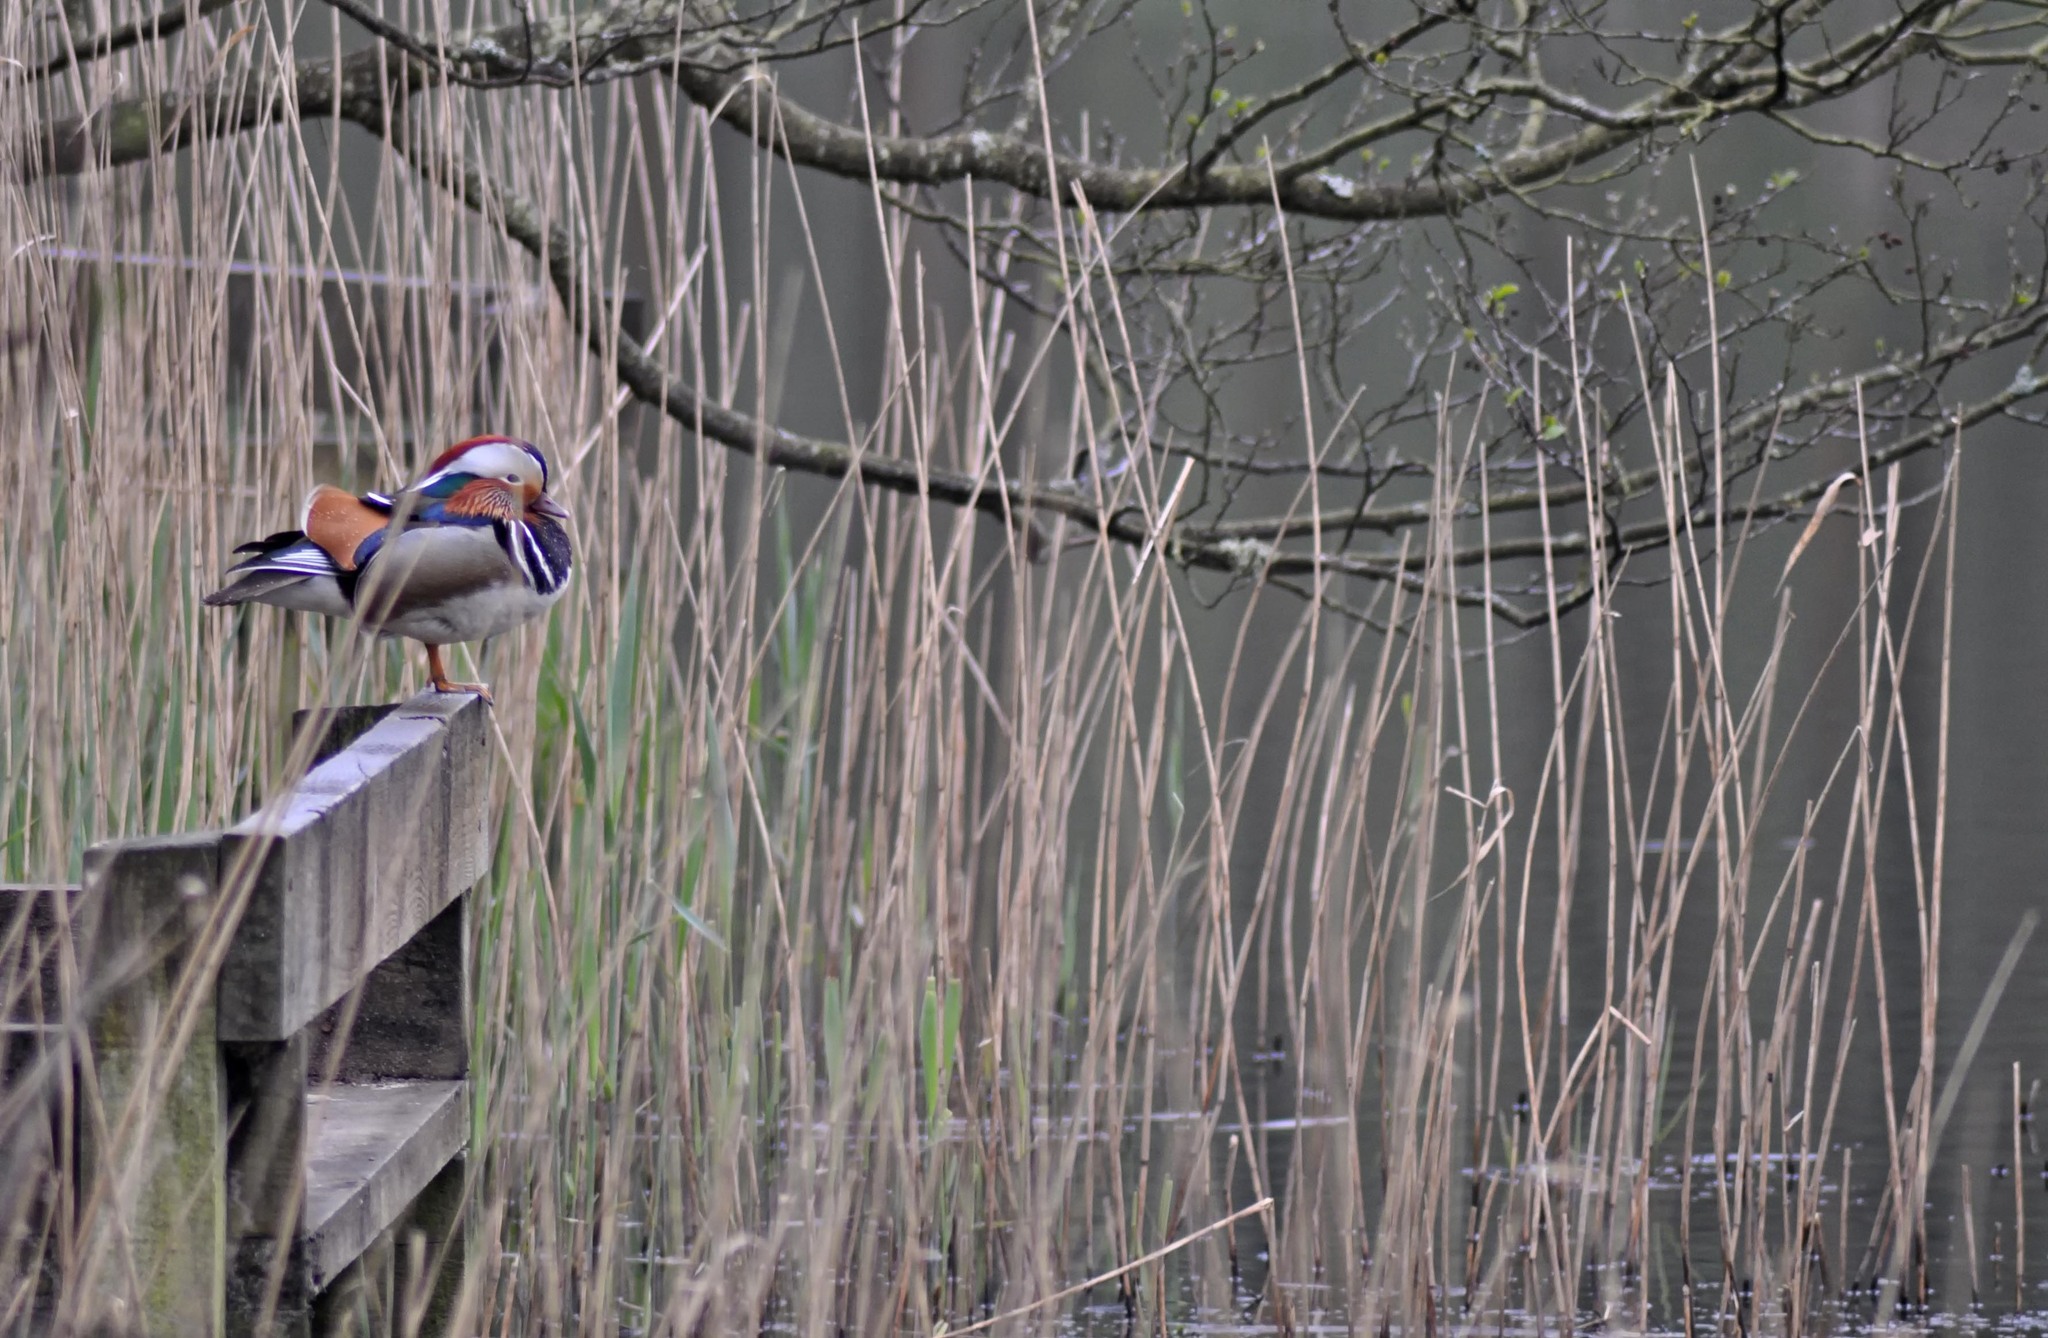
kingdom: Animalia
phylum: Chordata
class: Aves
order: Anseriformes
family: Anatidae
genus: Aix
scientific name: Aix galericulata
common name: Mandarin duck
